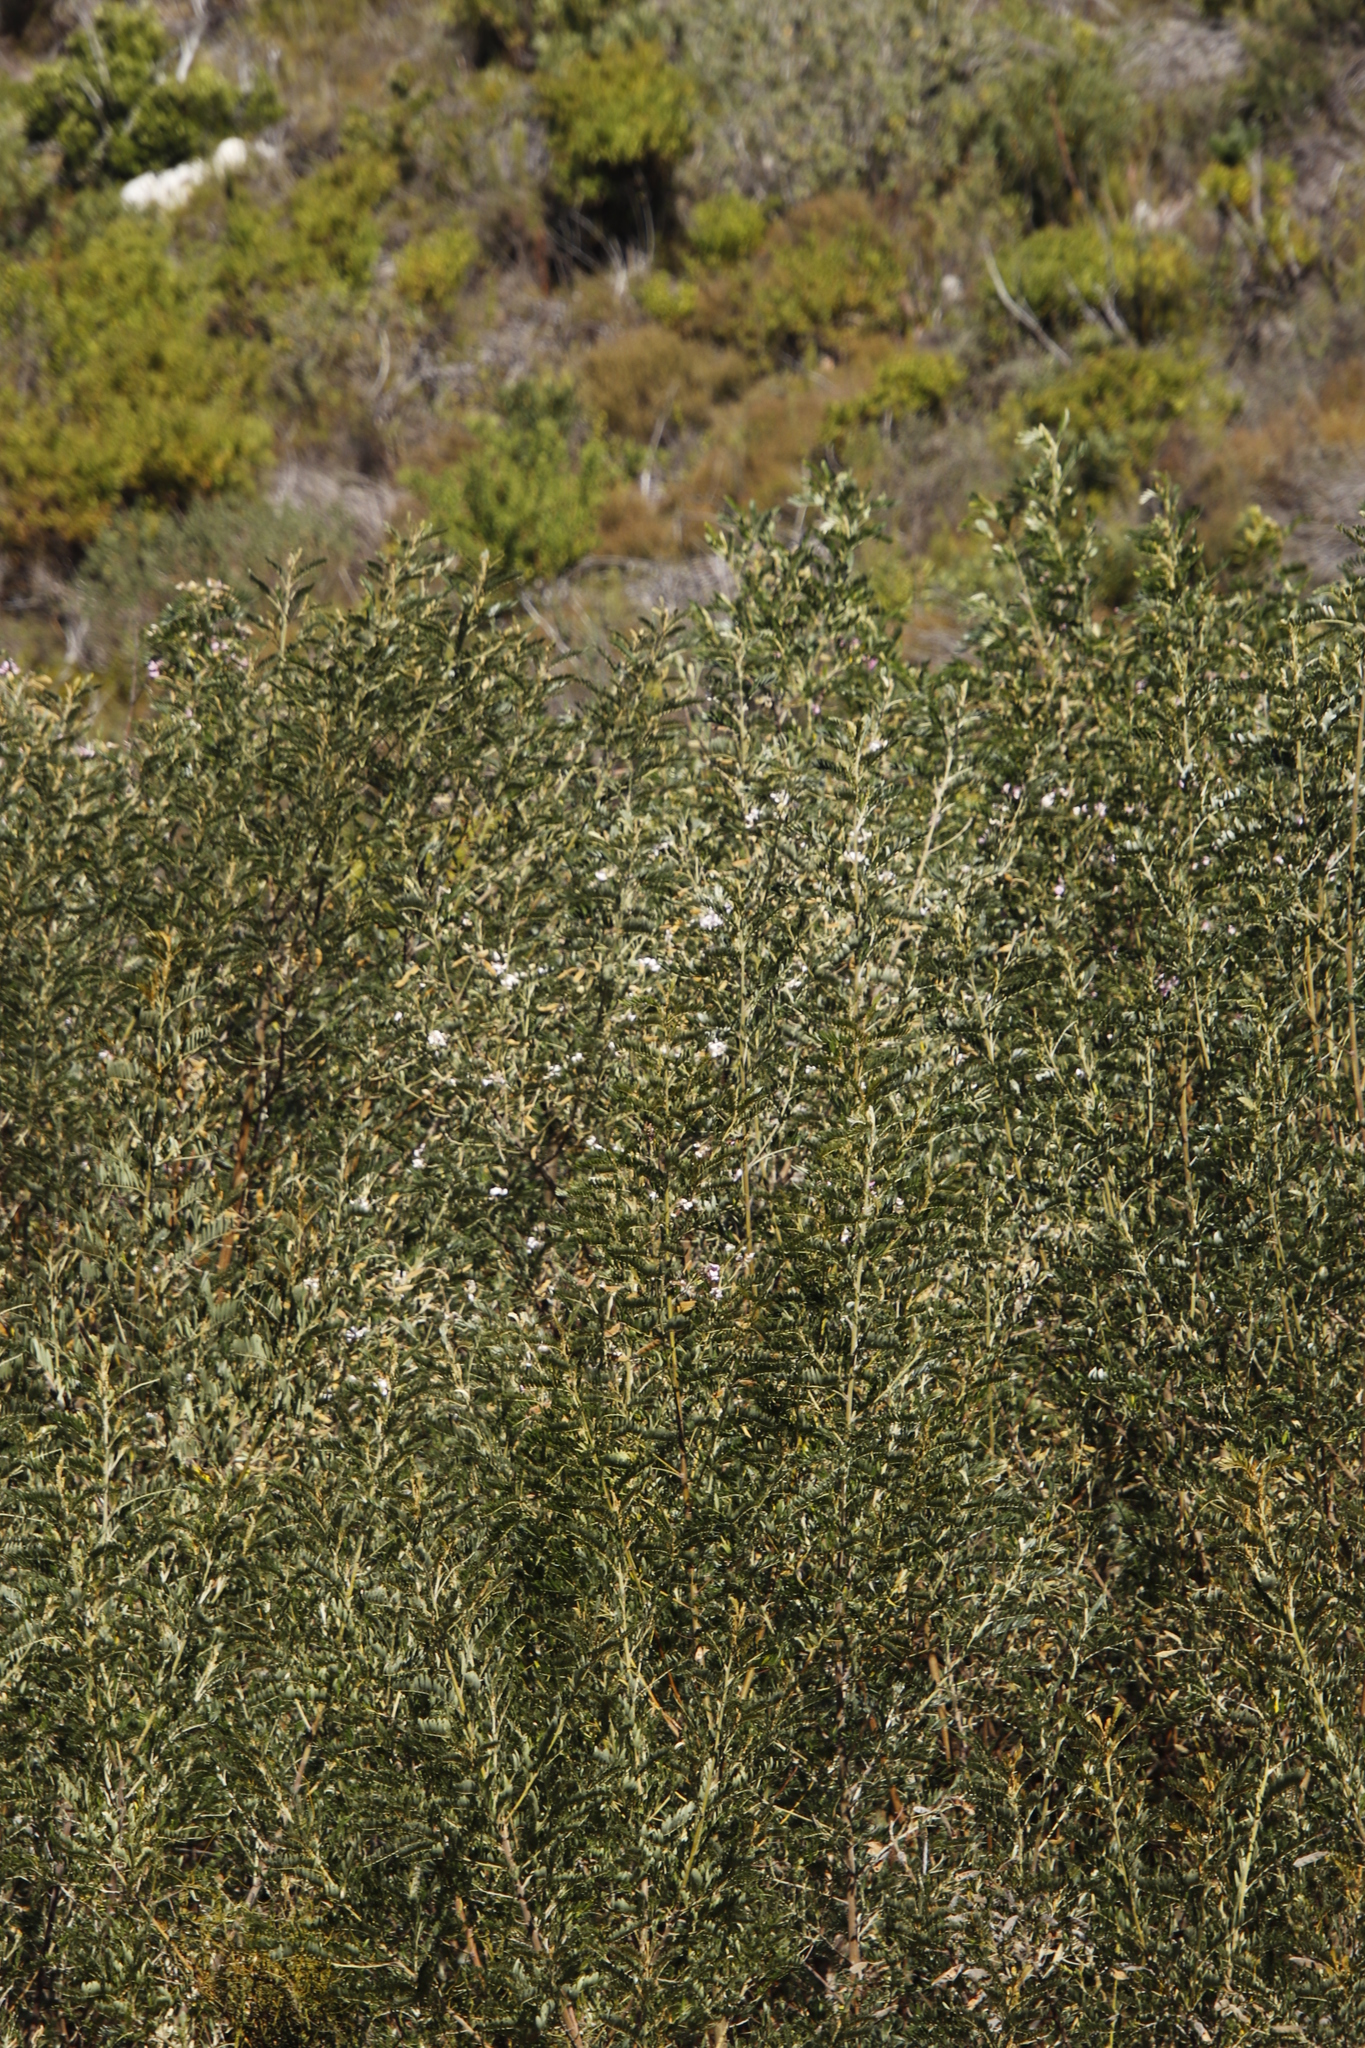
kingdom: Plantae
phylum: Tracheophyta
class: Magnoliopsida
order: Fabales
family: Fabaceae
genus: Virgilia
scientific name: Virgilia oroboides
